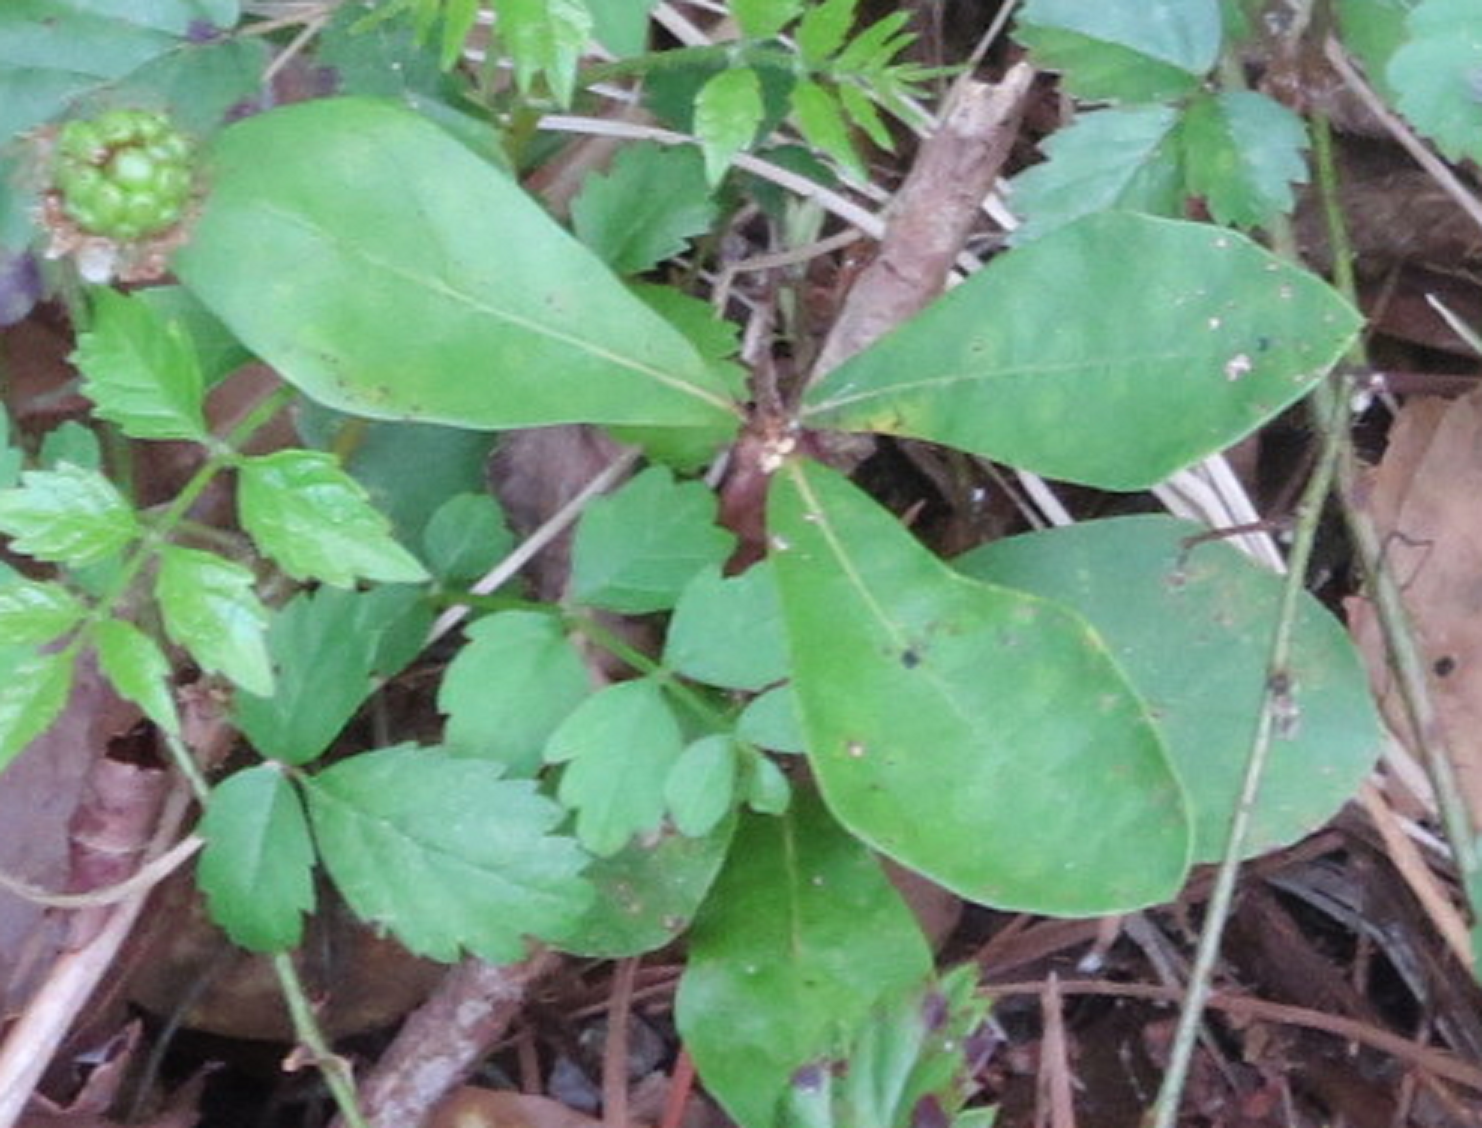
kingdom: Plantae
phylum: Tracheophyta
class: Magnoliopsida
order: Fagales
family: Fagaceae
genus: Quercus
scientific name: Quercus nigra
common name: Water oak
